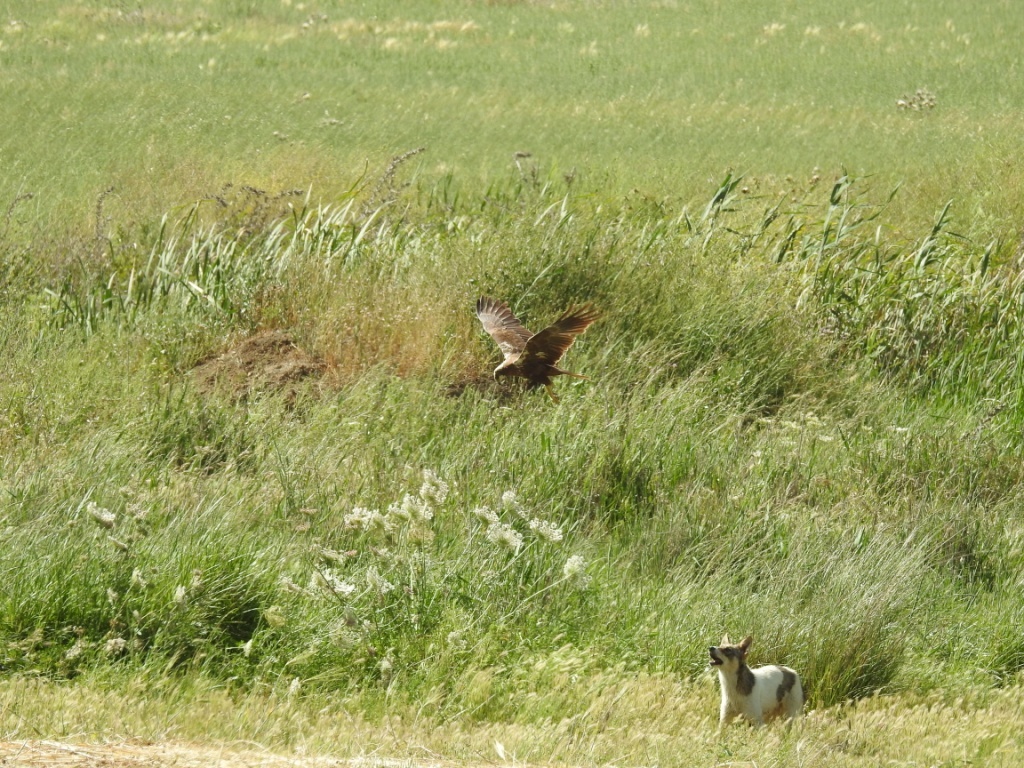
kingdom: Animalia
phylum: Chordata
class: Aves
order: Accipitriformes
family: Accipitridae
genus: Circus
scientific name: Circus aeruginosus
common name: Western marsh harrier
